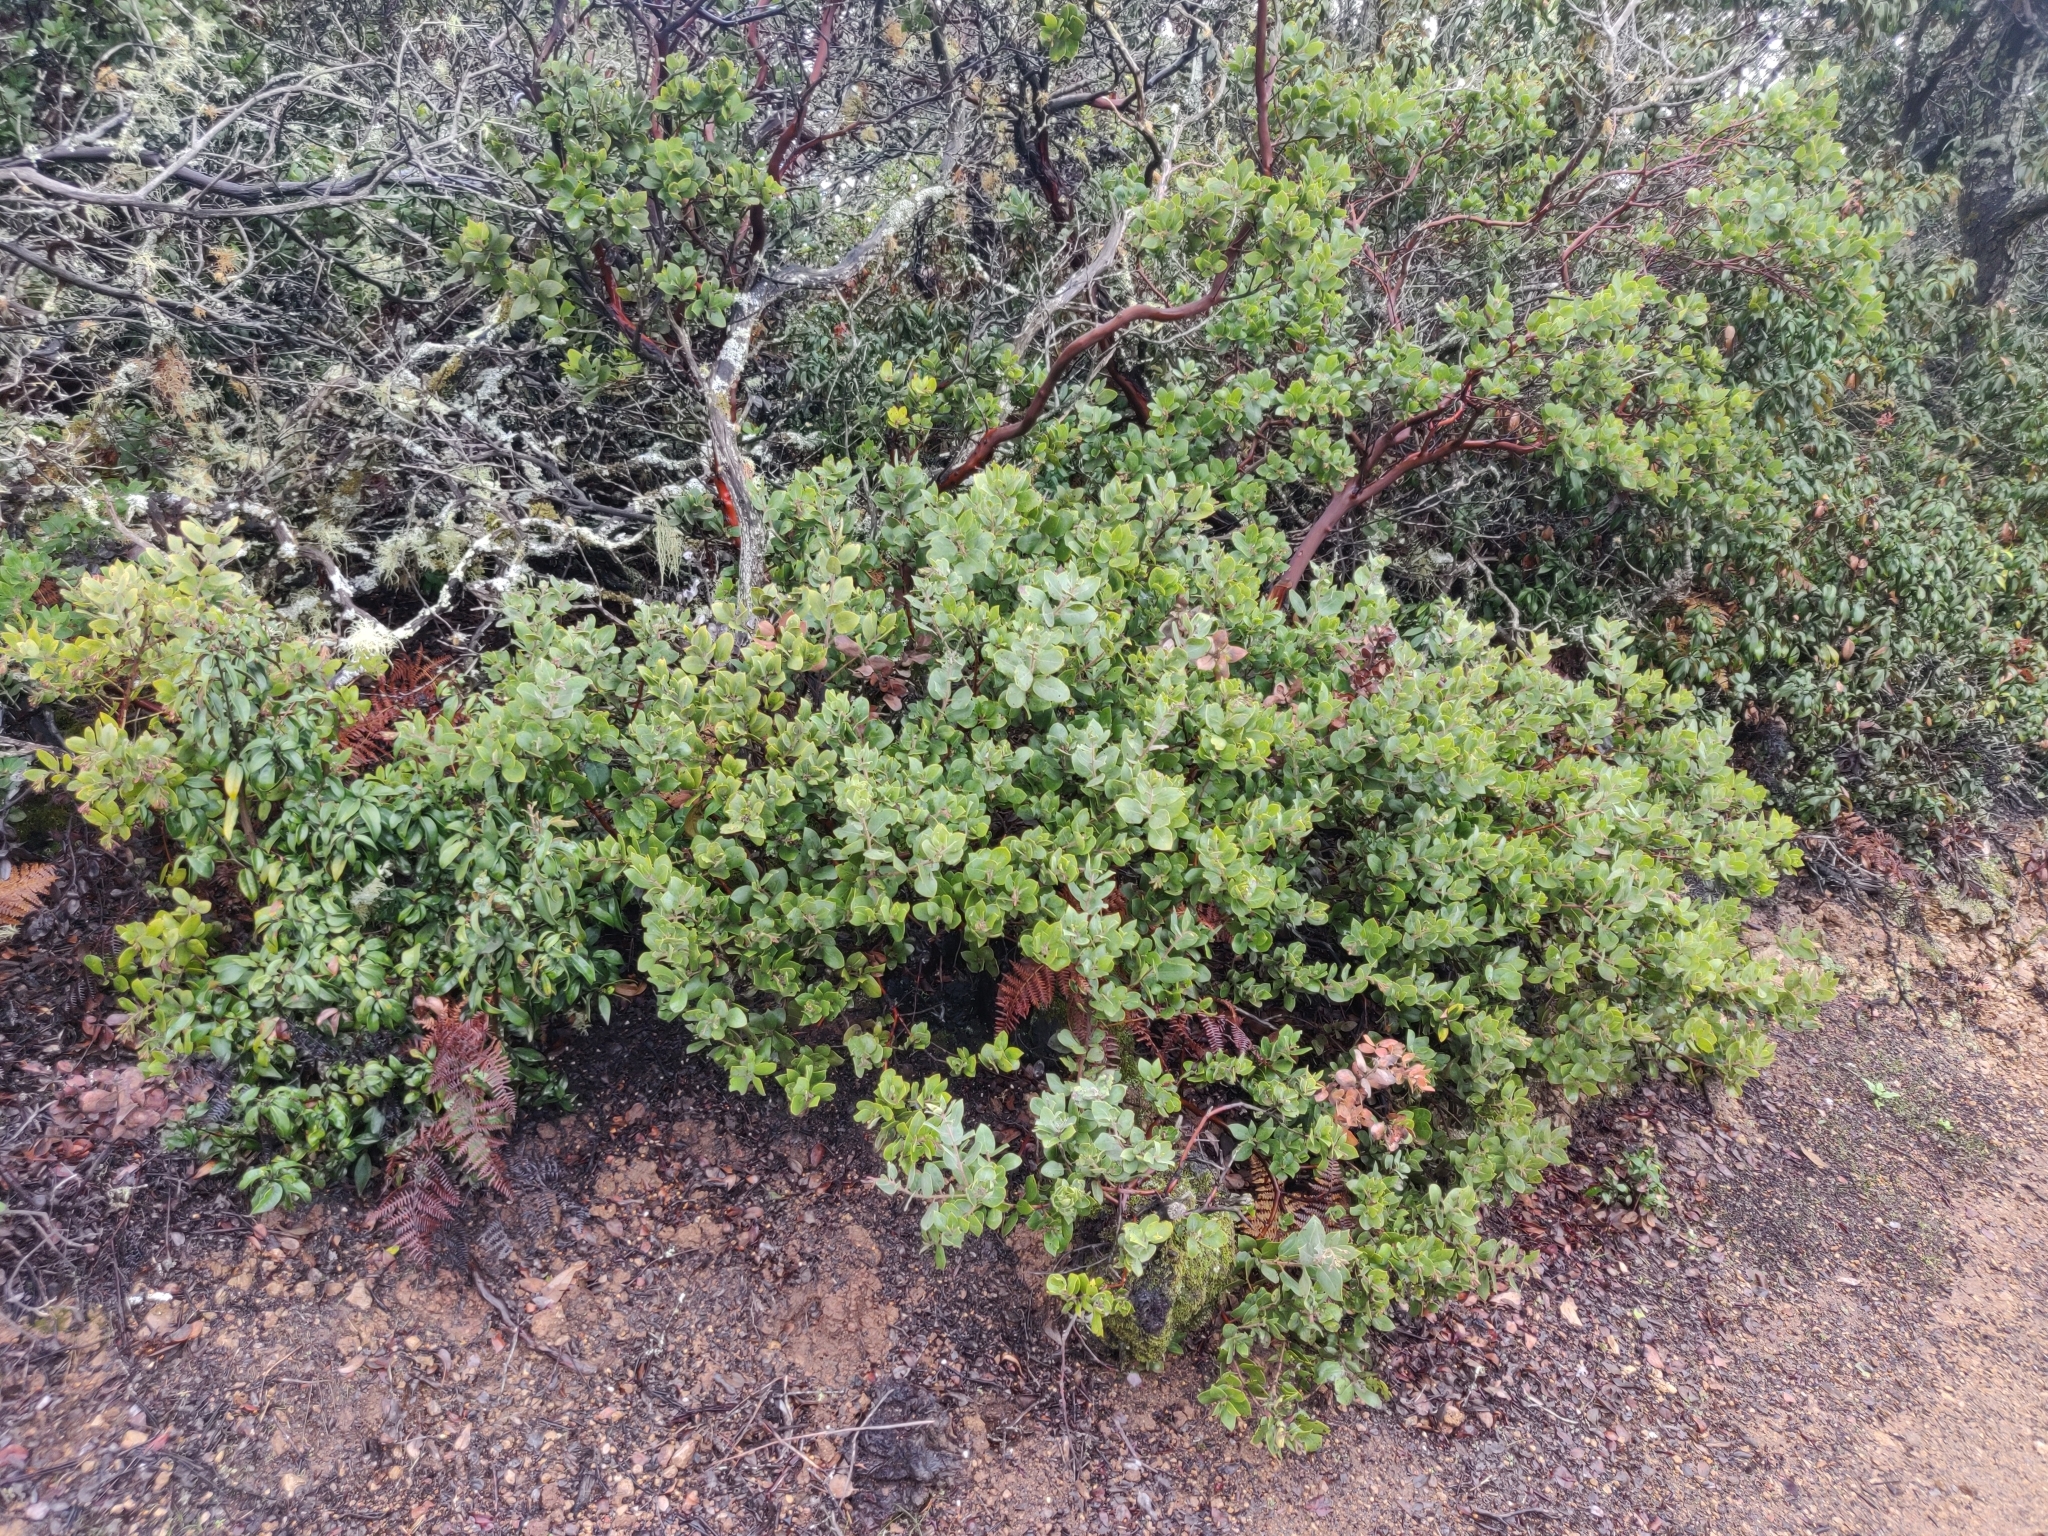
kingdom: Plantae
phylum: Tracheophyta
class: Magnoliopsida
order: Ericales
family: Ericaceae
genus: Arctostaphylos
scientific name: Arctostaphylos crustacea
